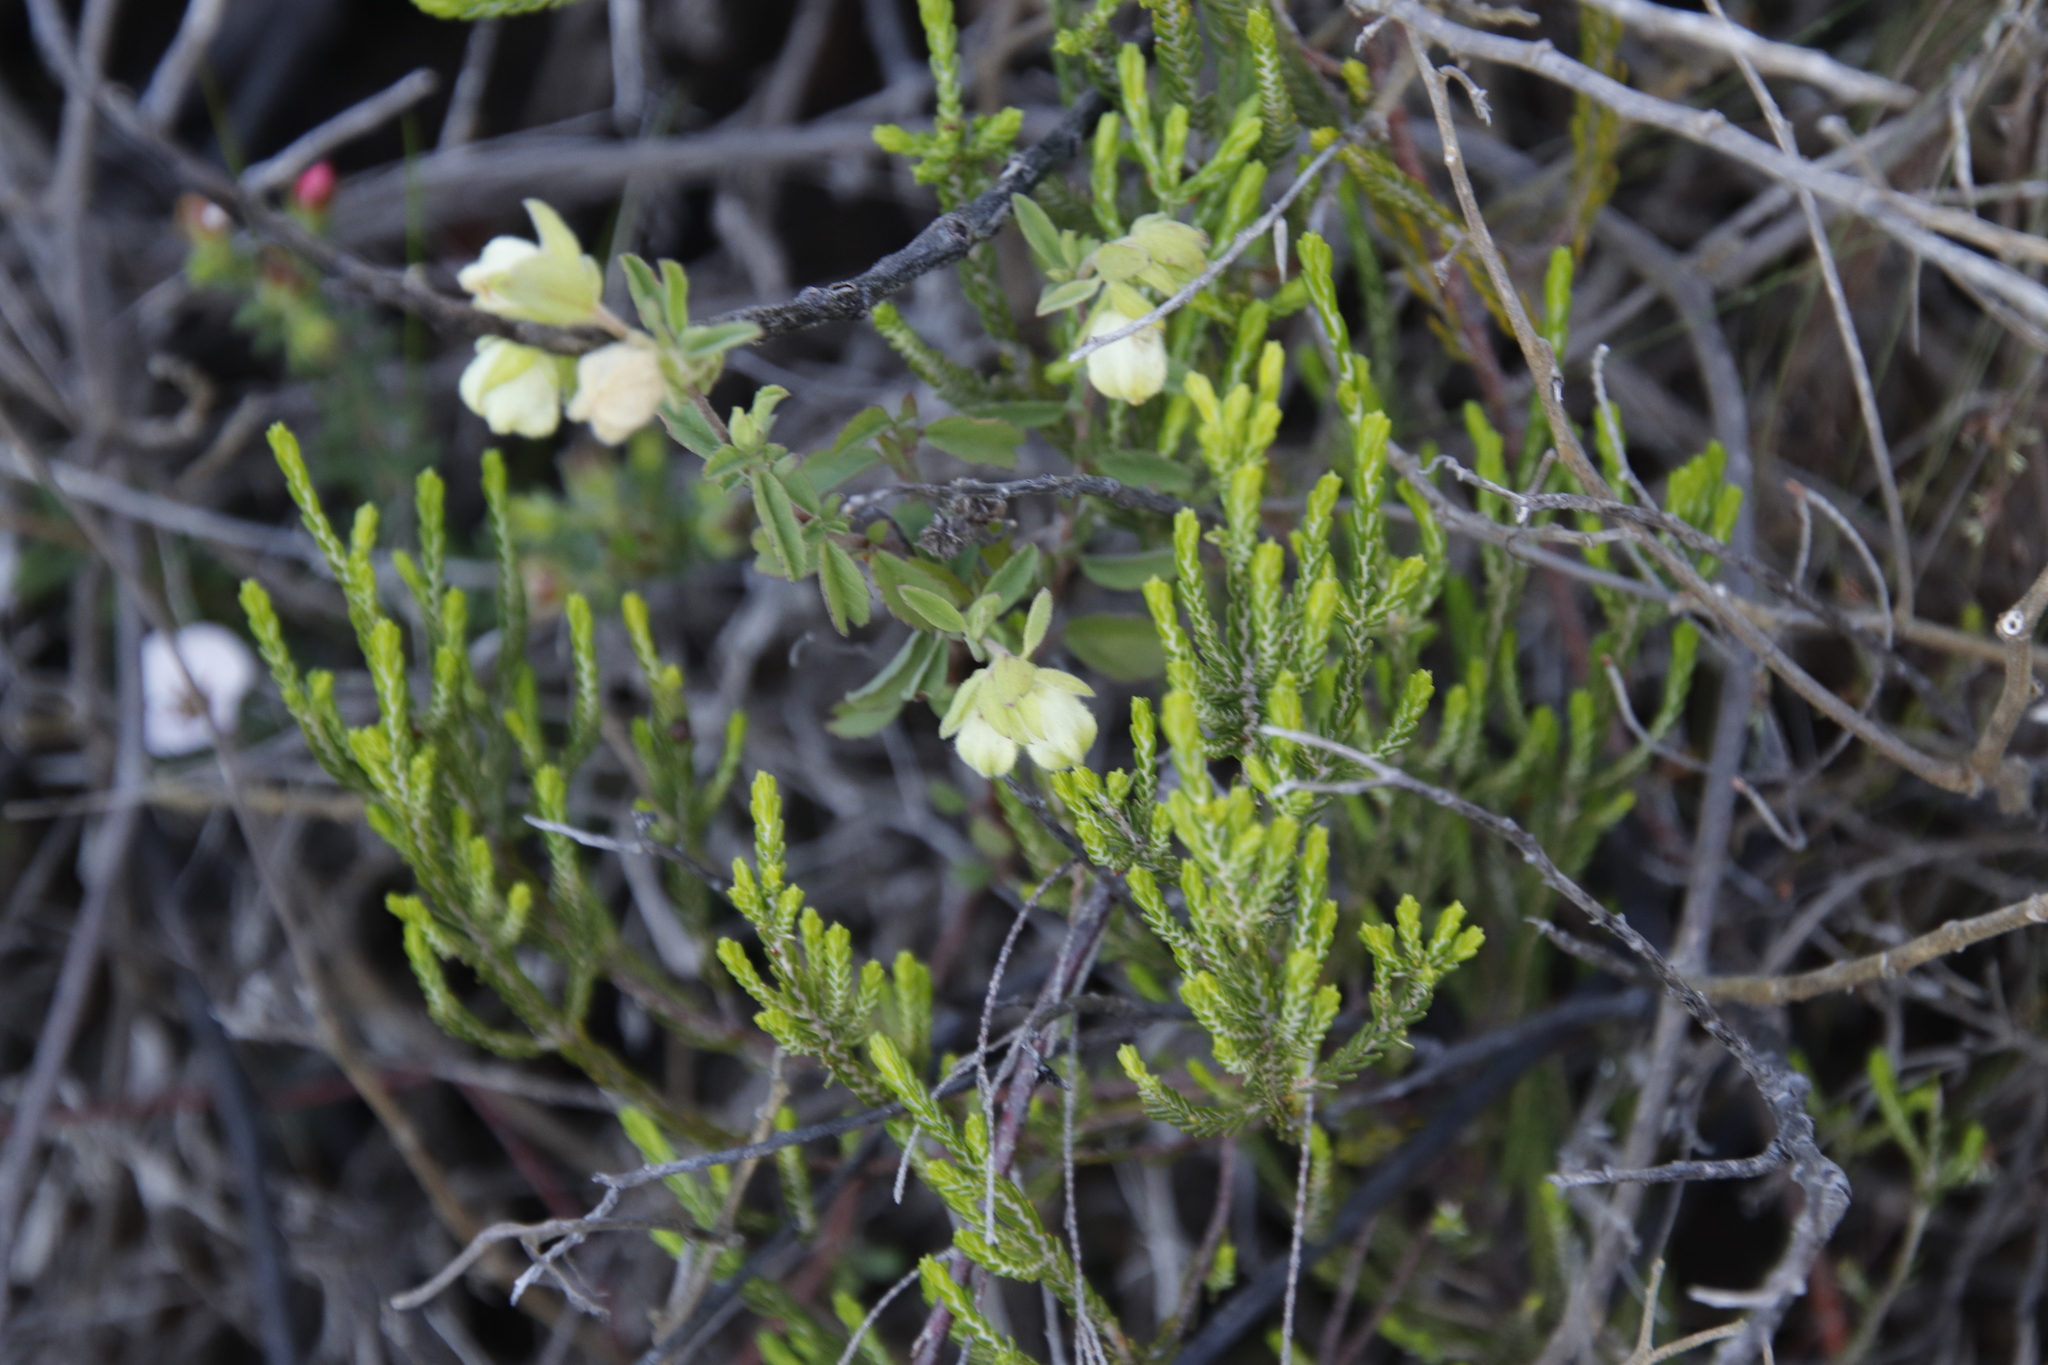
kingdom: Plantae
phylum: Tracheophyta
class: Magnoliopsida
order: Malvales
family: Malvaceae
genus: Hermannia
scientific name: Hermannia hyssopifolia
